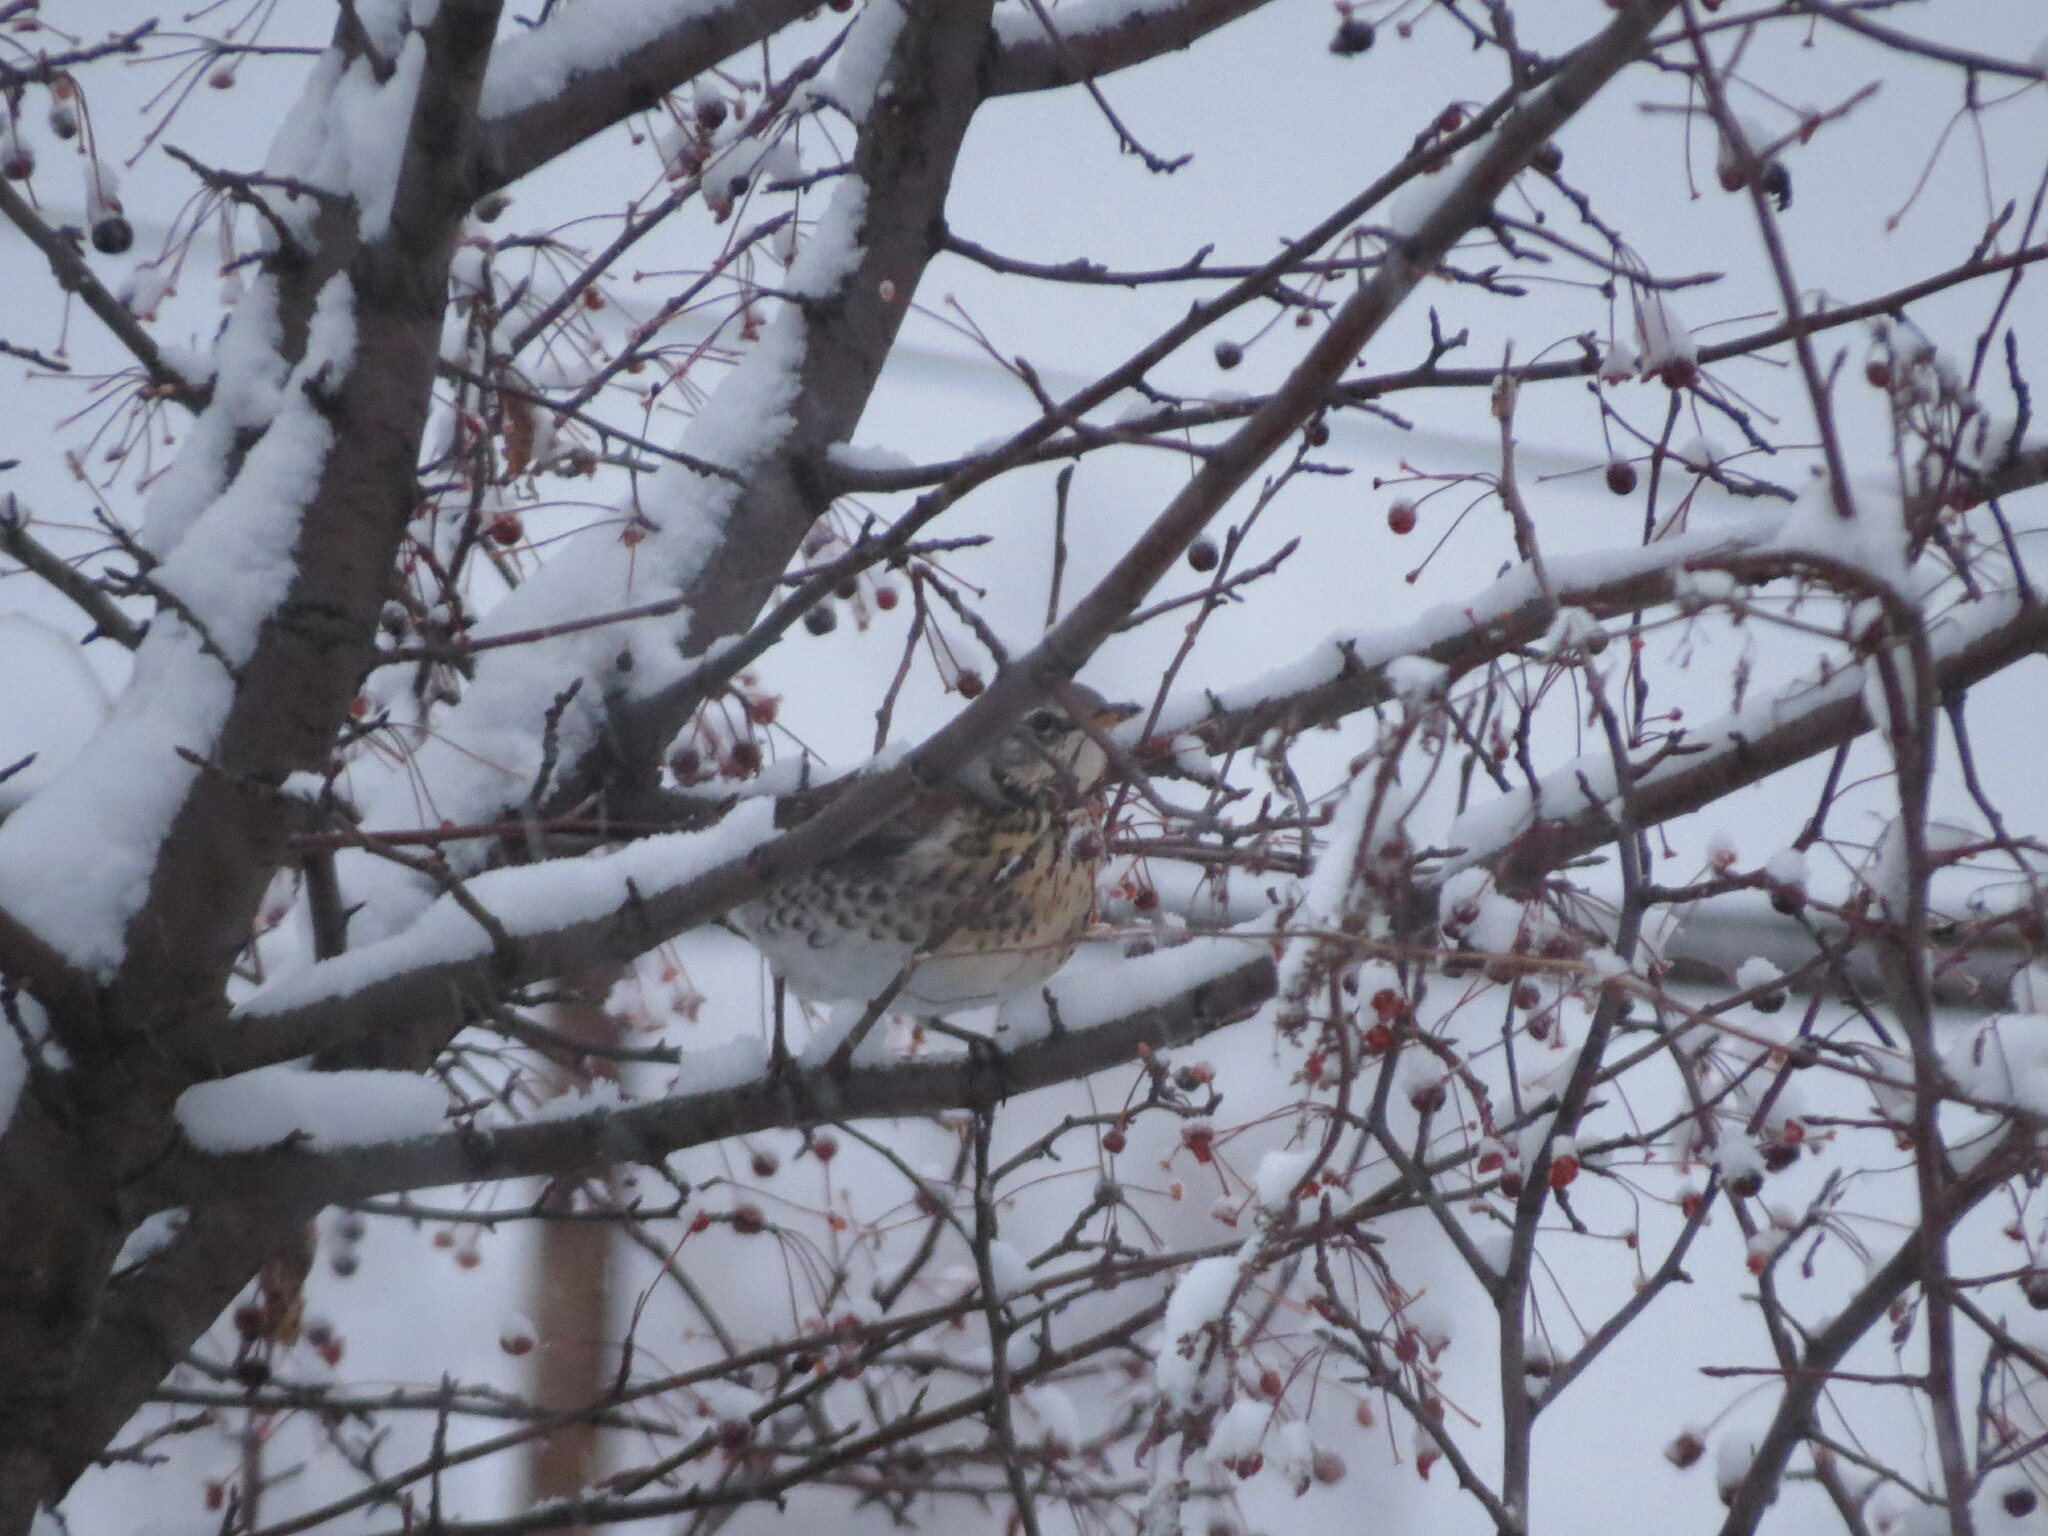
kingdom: Animalia
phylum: Chordata
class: Aves
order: Passeriformes
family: Turdidae
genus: Turdus
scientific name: Turdus pilaris
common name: Fieldfare
